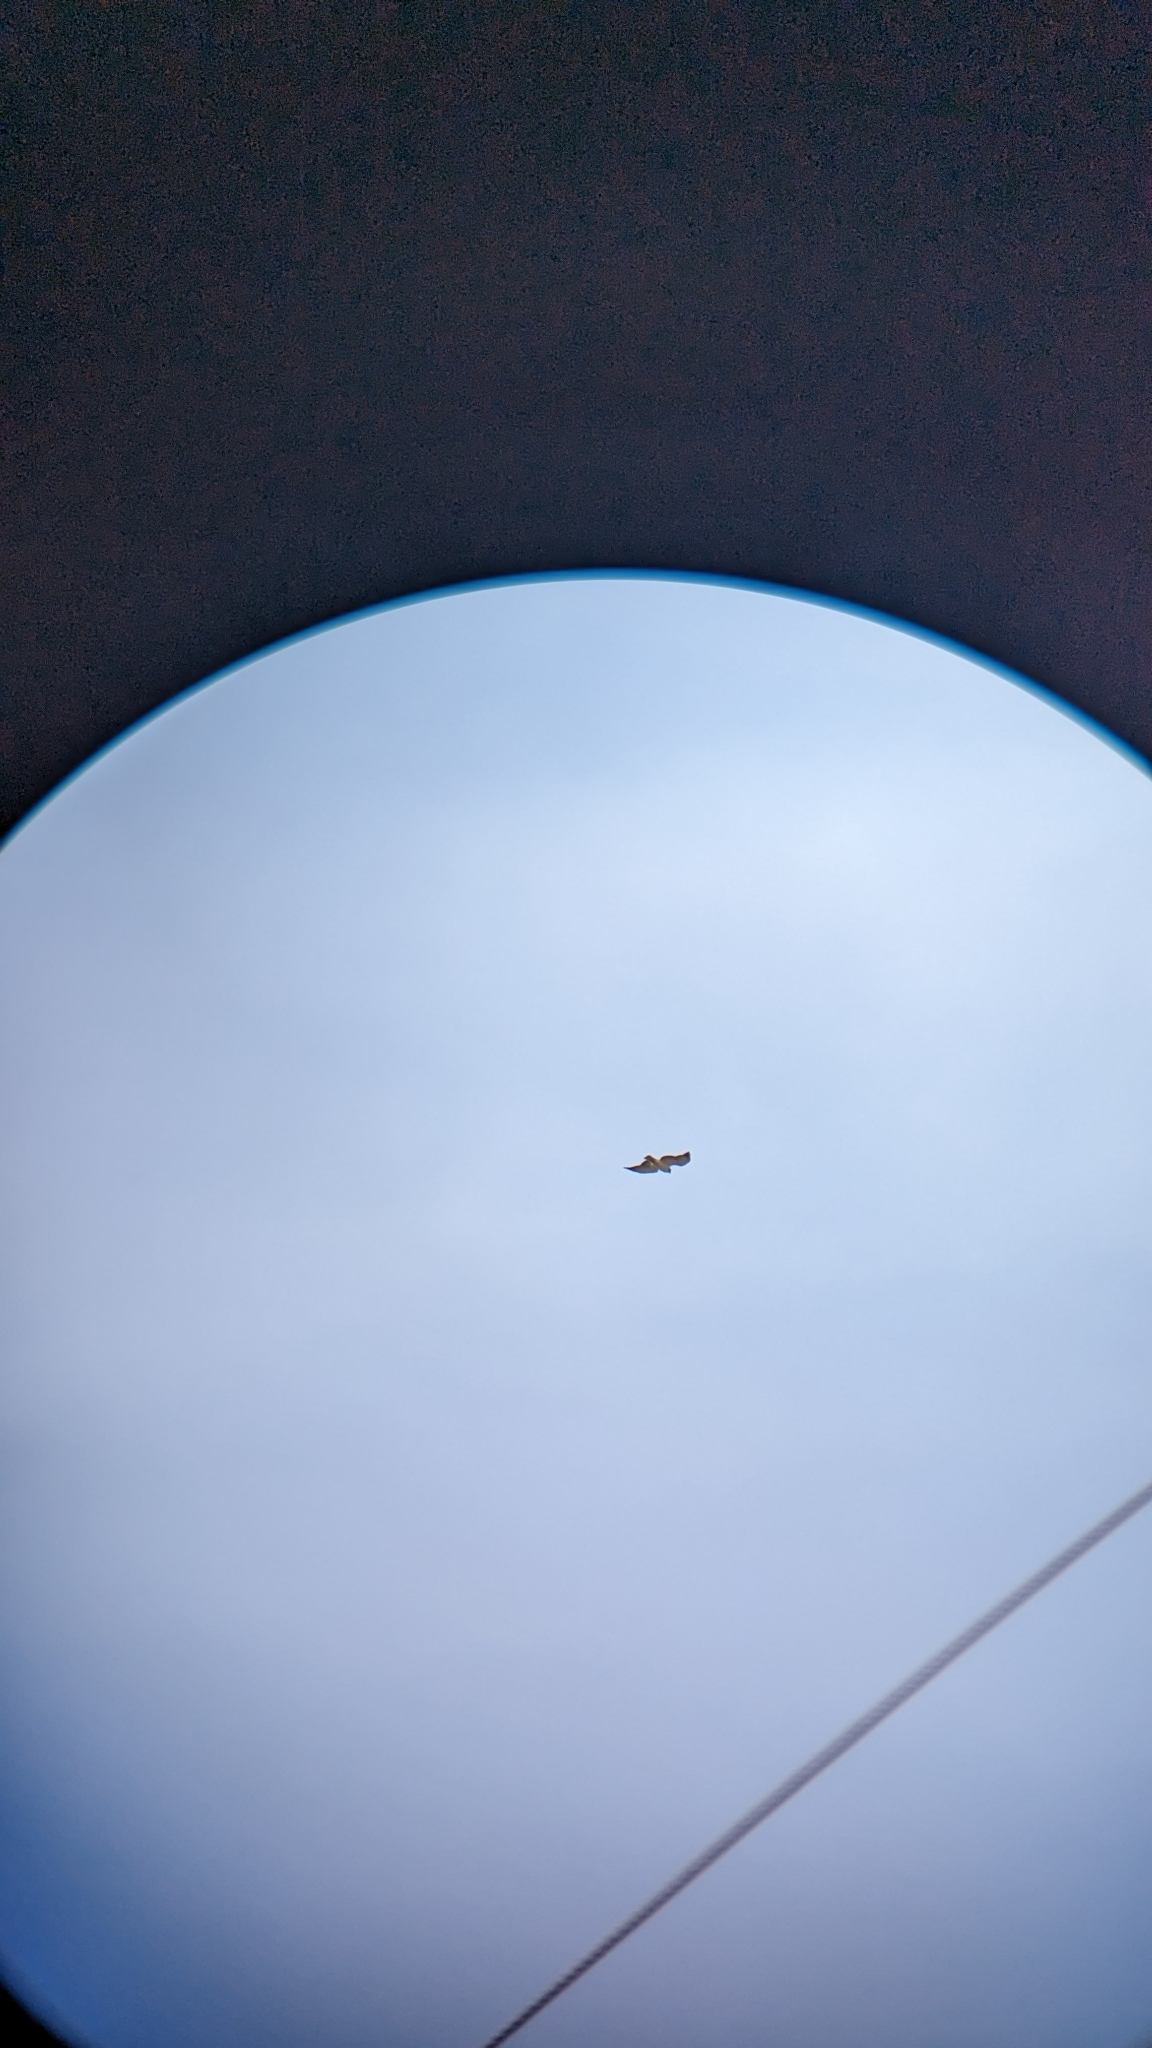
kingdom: Animalia
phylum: Chordata
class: Aves
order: Accipitriformes
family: Accipitridae
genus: Buteo
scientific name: Buteo brachyurus
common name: Short-tailed hawk
